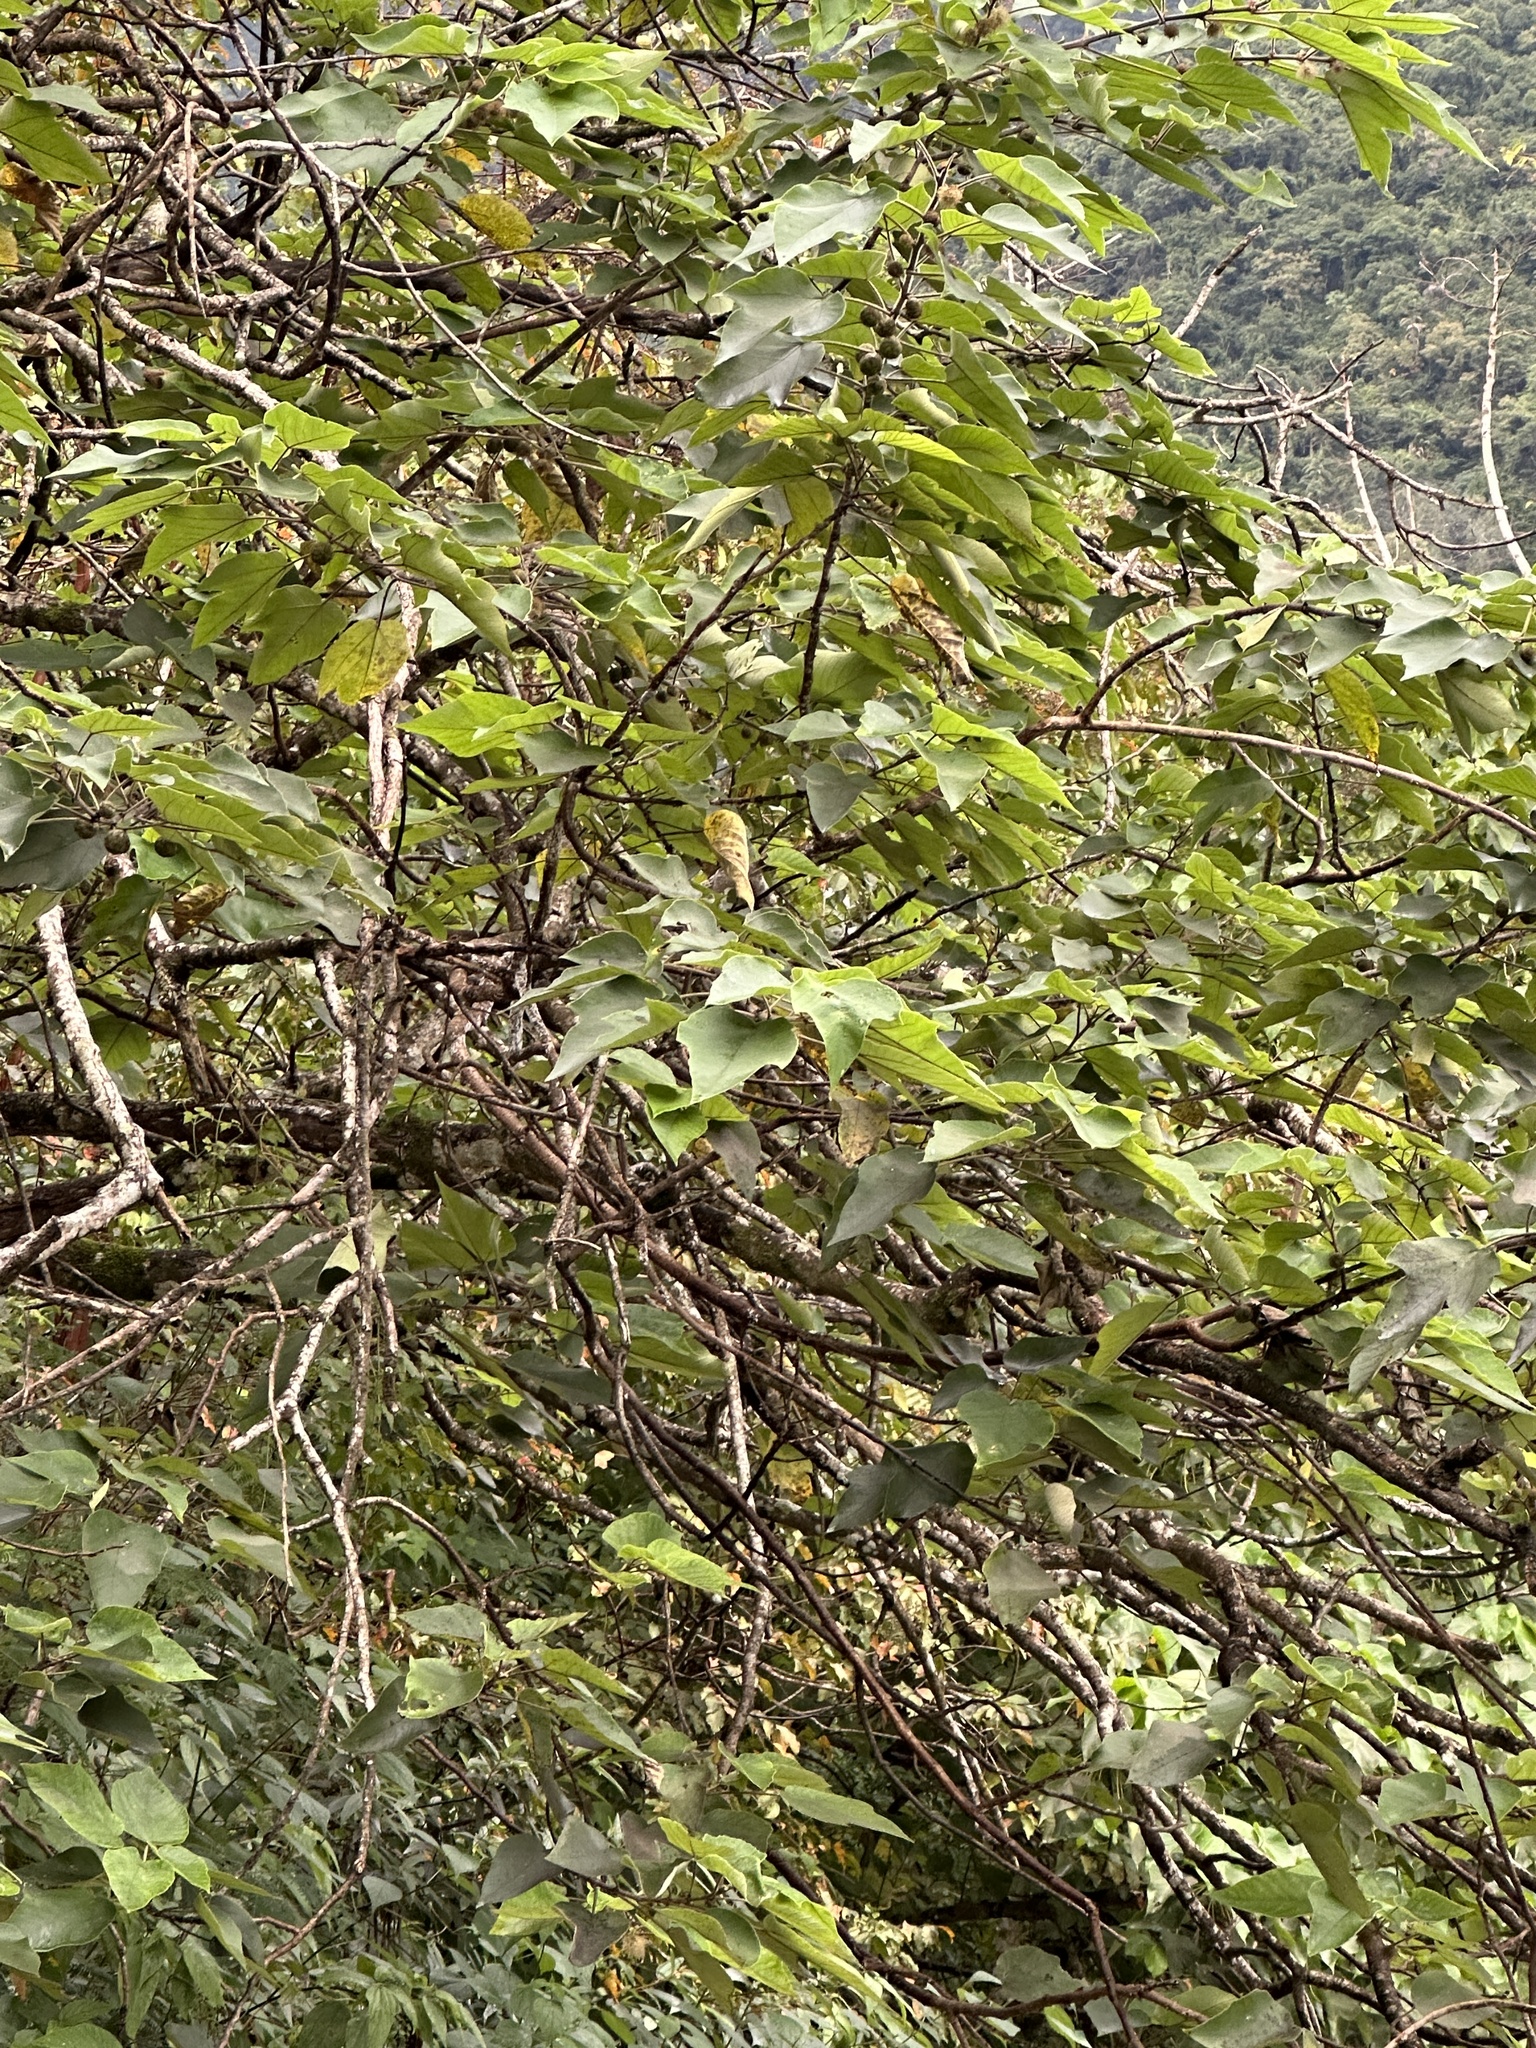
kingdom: Plantae
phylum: Tracheophyta
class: Magnoliopsida
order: Rosales
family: Moraceae
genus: Broussonetia
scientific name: Broussonetia papyrifera
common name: Paper mulberry
